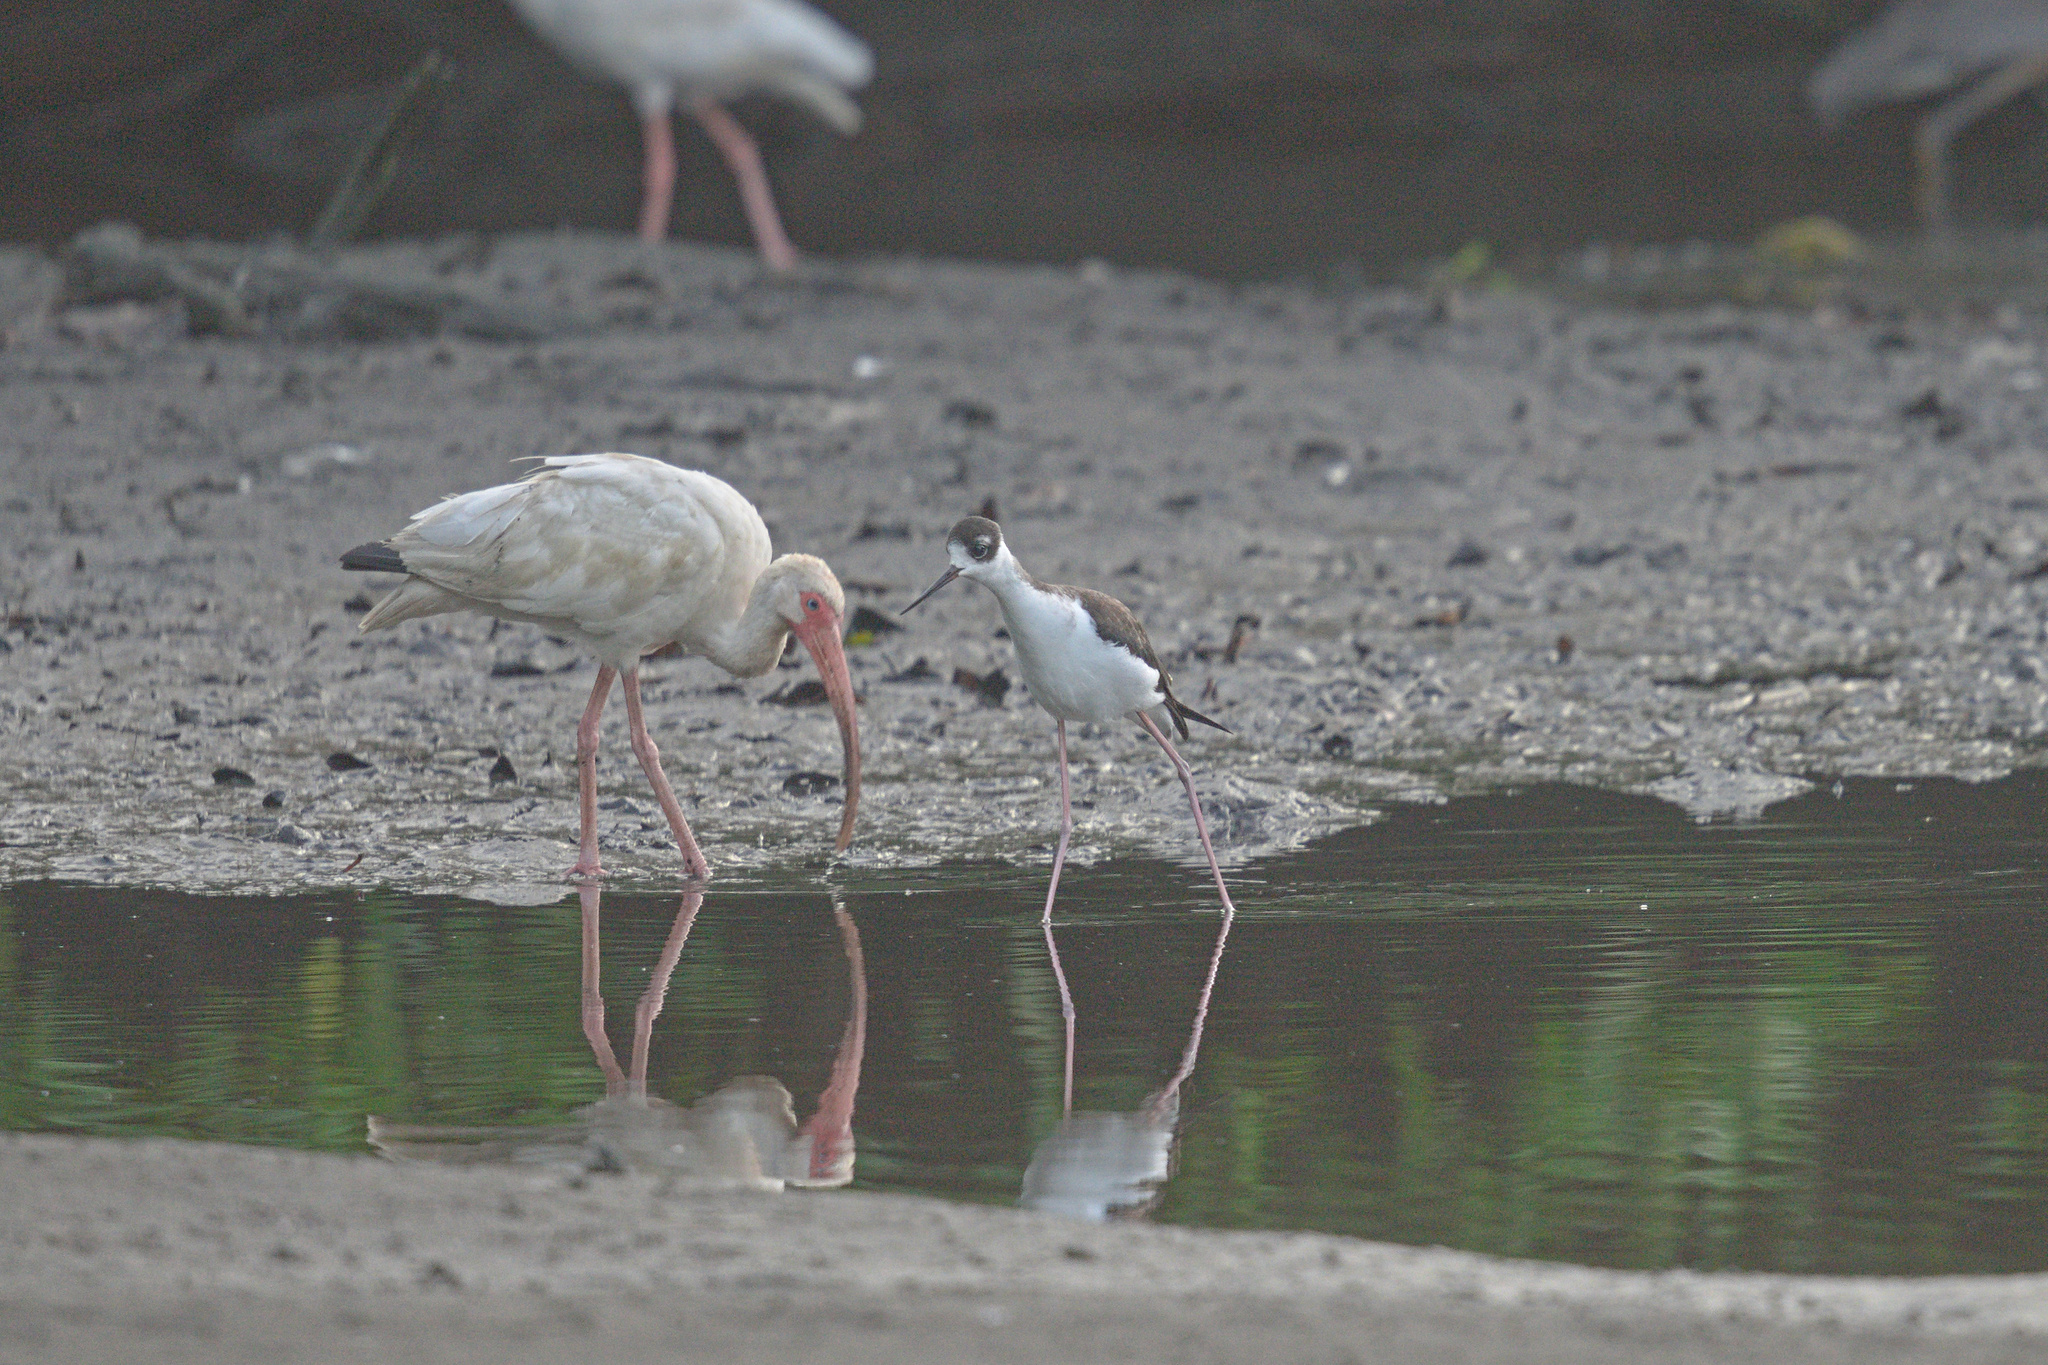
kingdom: Animalia
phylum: Chordata
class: Aves
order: Charadriiformes
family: Recurvirostridae
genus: Himantopus
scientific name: Himantopus mexicanus
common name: Black-necked stilt
